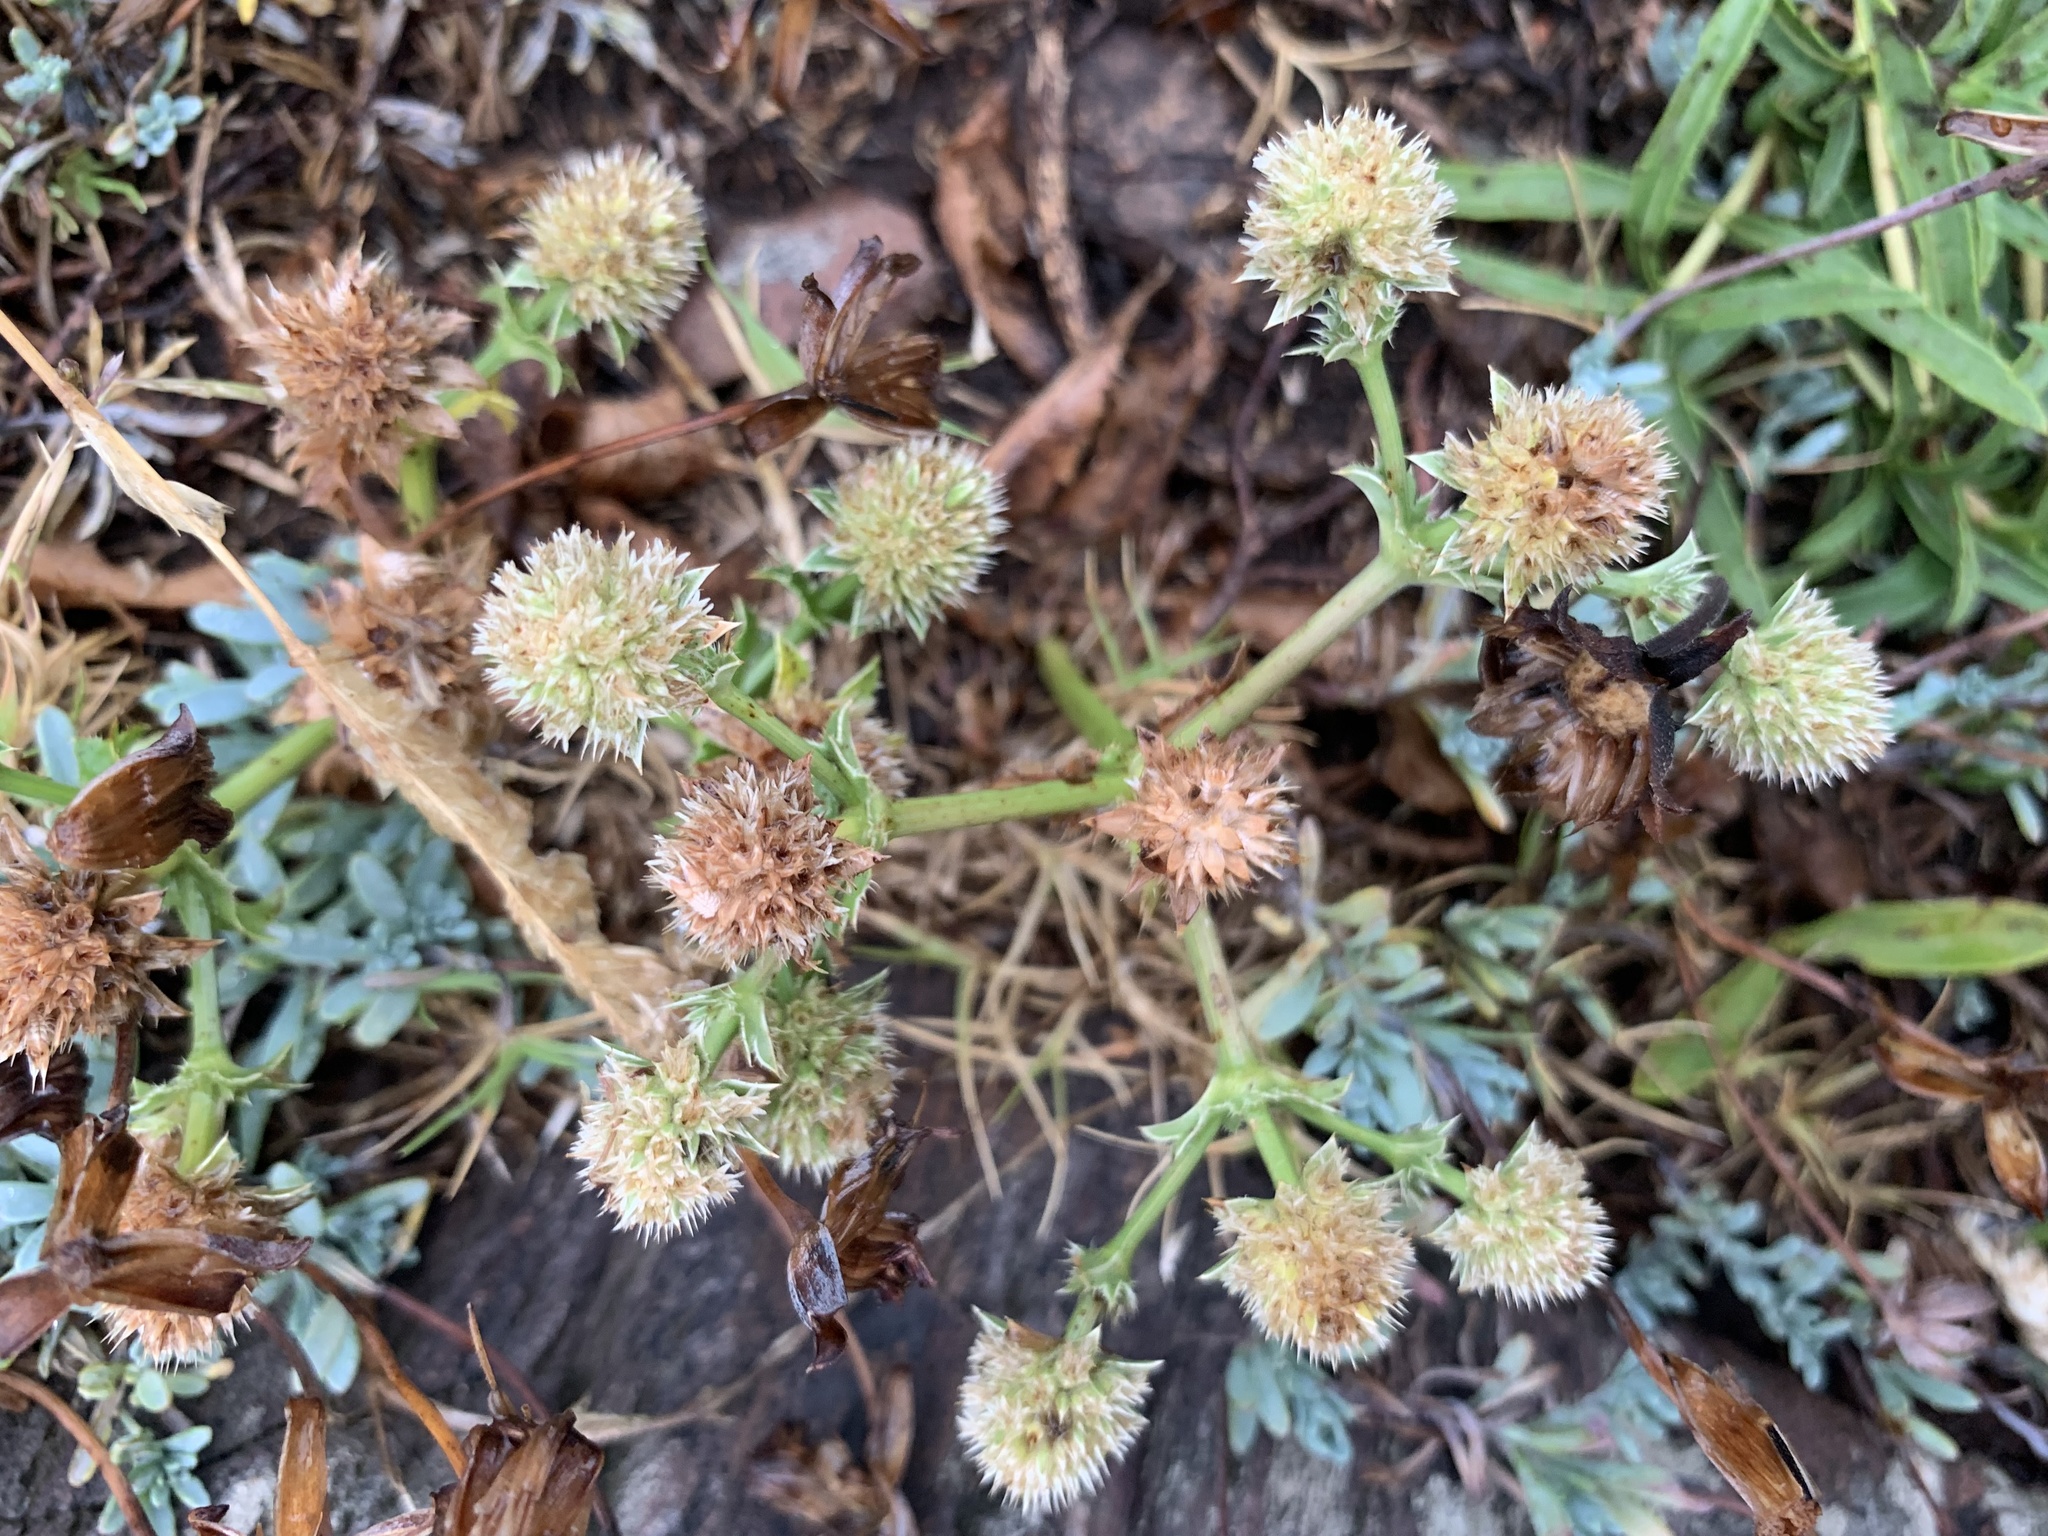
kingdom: Plantae
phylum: Tracheophyta
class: Magnoliopsida
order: Apiales
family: Apiaceae
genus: Eryngium
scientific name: Eryngium nudicaule
